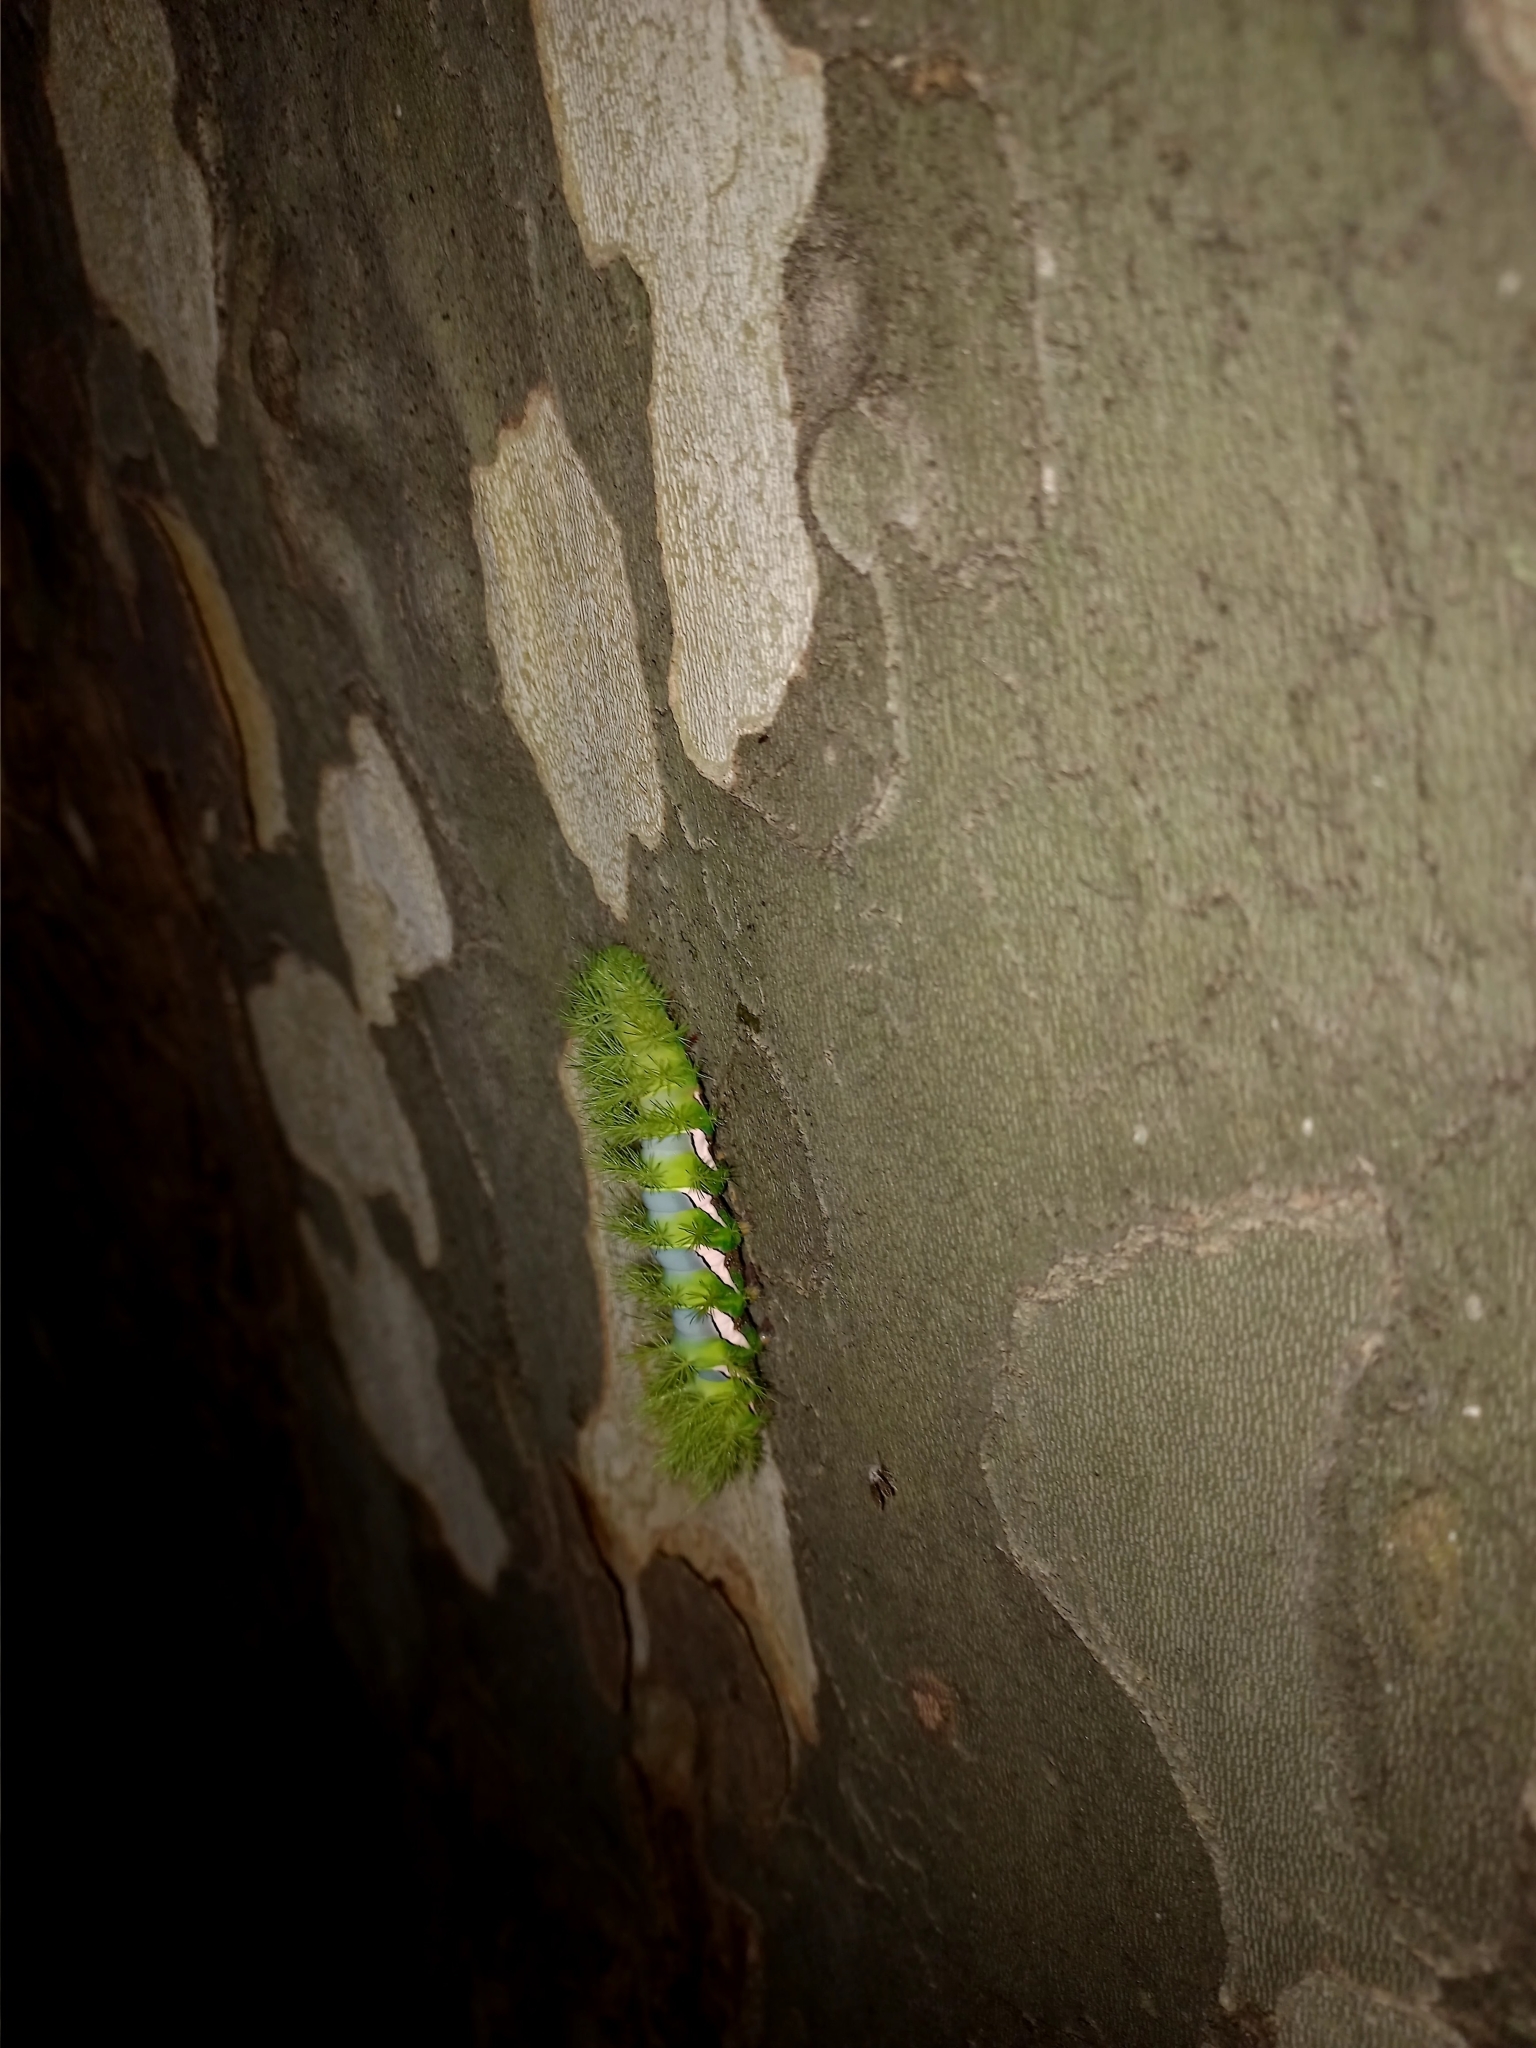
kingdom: Animalia
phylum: Arthropoda
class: Insecta
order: Lepidoptera
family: Saturniidae
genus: Automeris
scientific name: Automeris naranja
